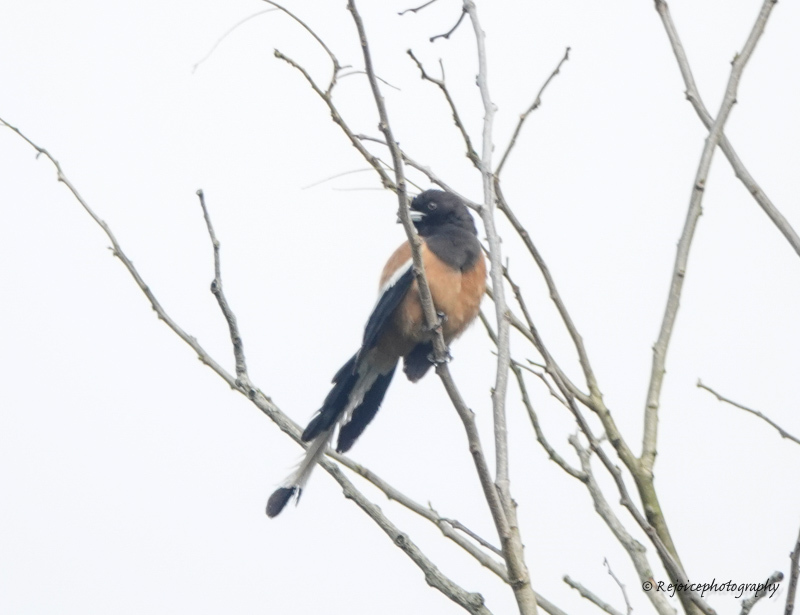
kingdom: Animalia
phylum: Chordata
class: Aves
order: Passeriformes
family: Corvidae
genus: Dendrocitta
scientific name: Dendrocitta vagabunda
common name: Rufous treepie
